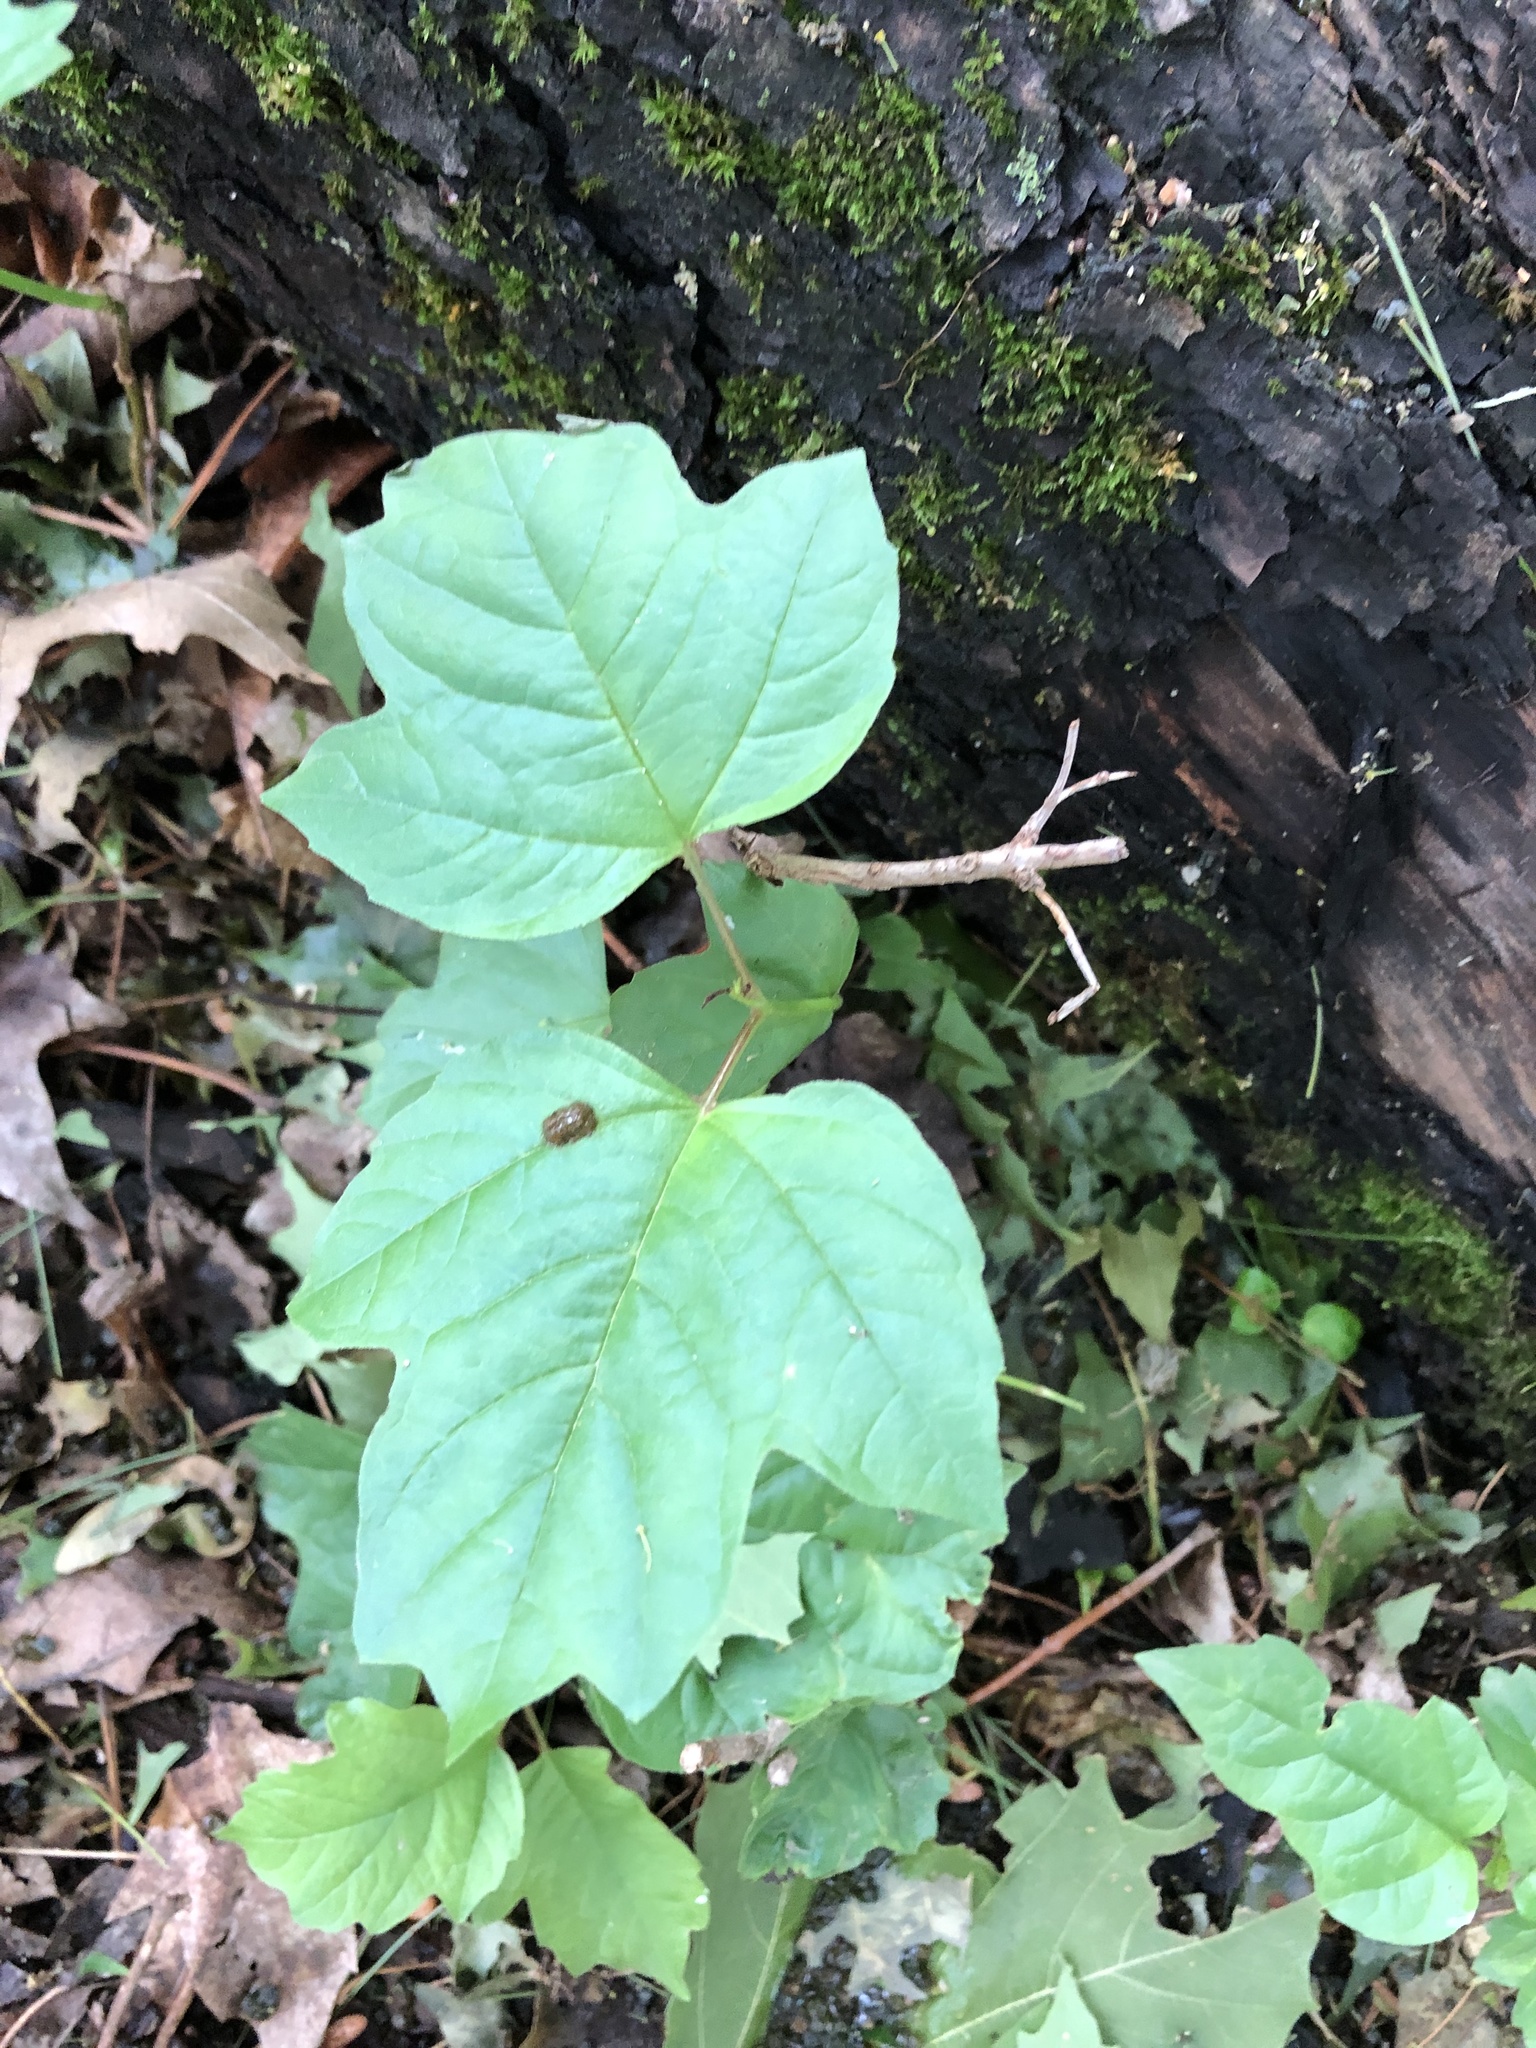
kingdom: Plantae
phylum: Tracheophyta
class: Magnoliopsida
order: Dipsacales
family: Viburnaceae
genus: Viburnum
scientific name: Viburnum opulus
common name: Guelder-rose
